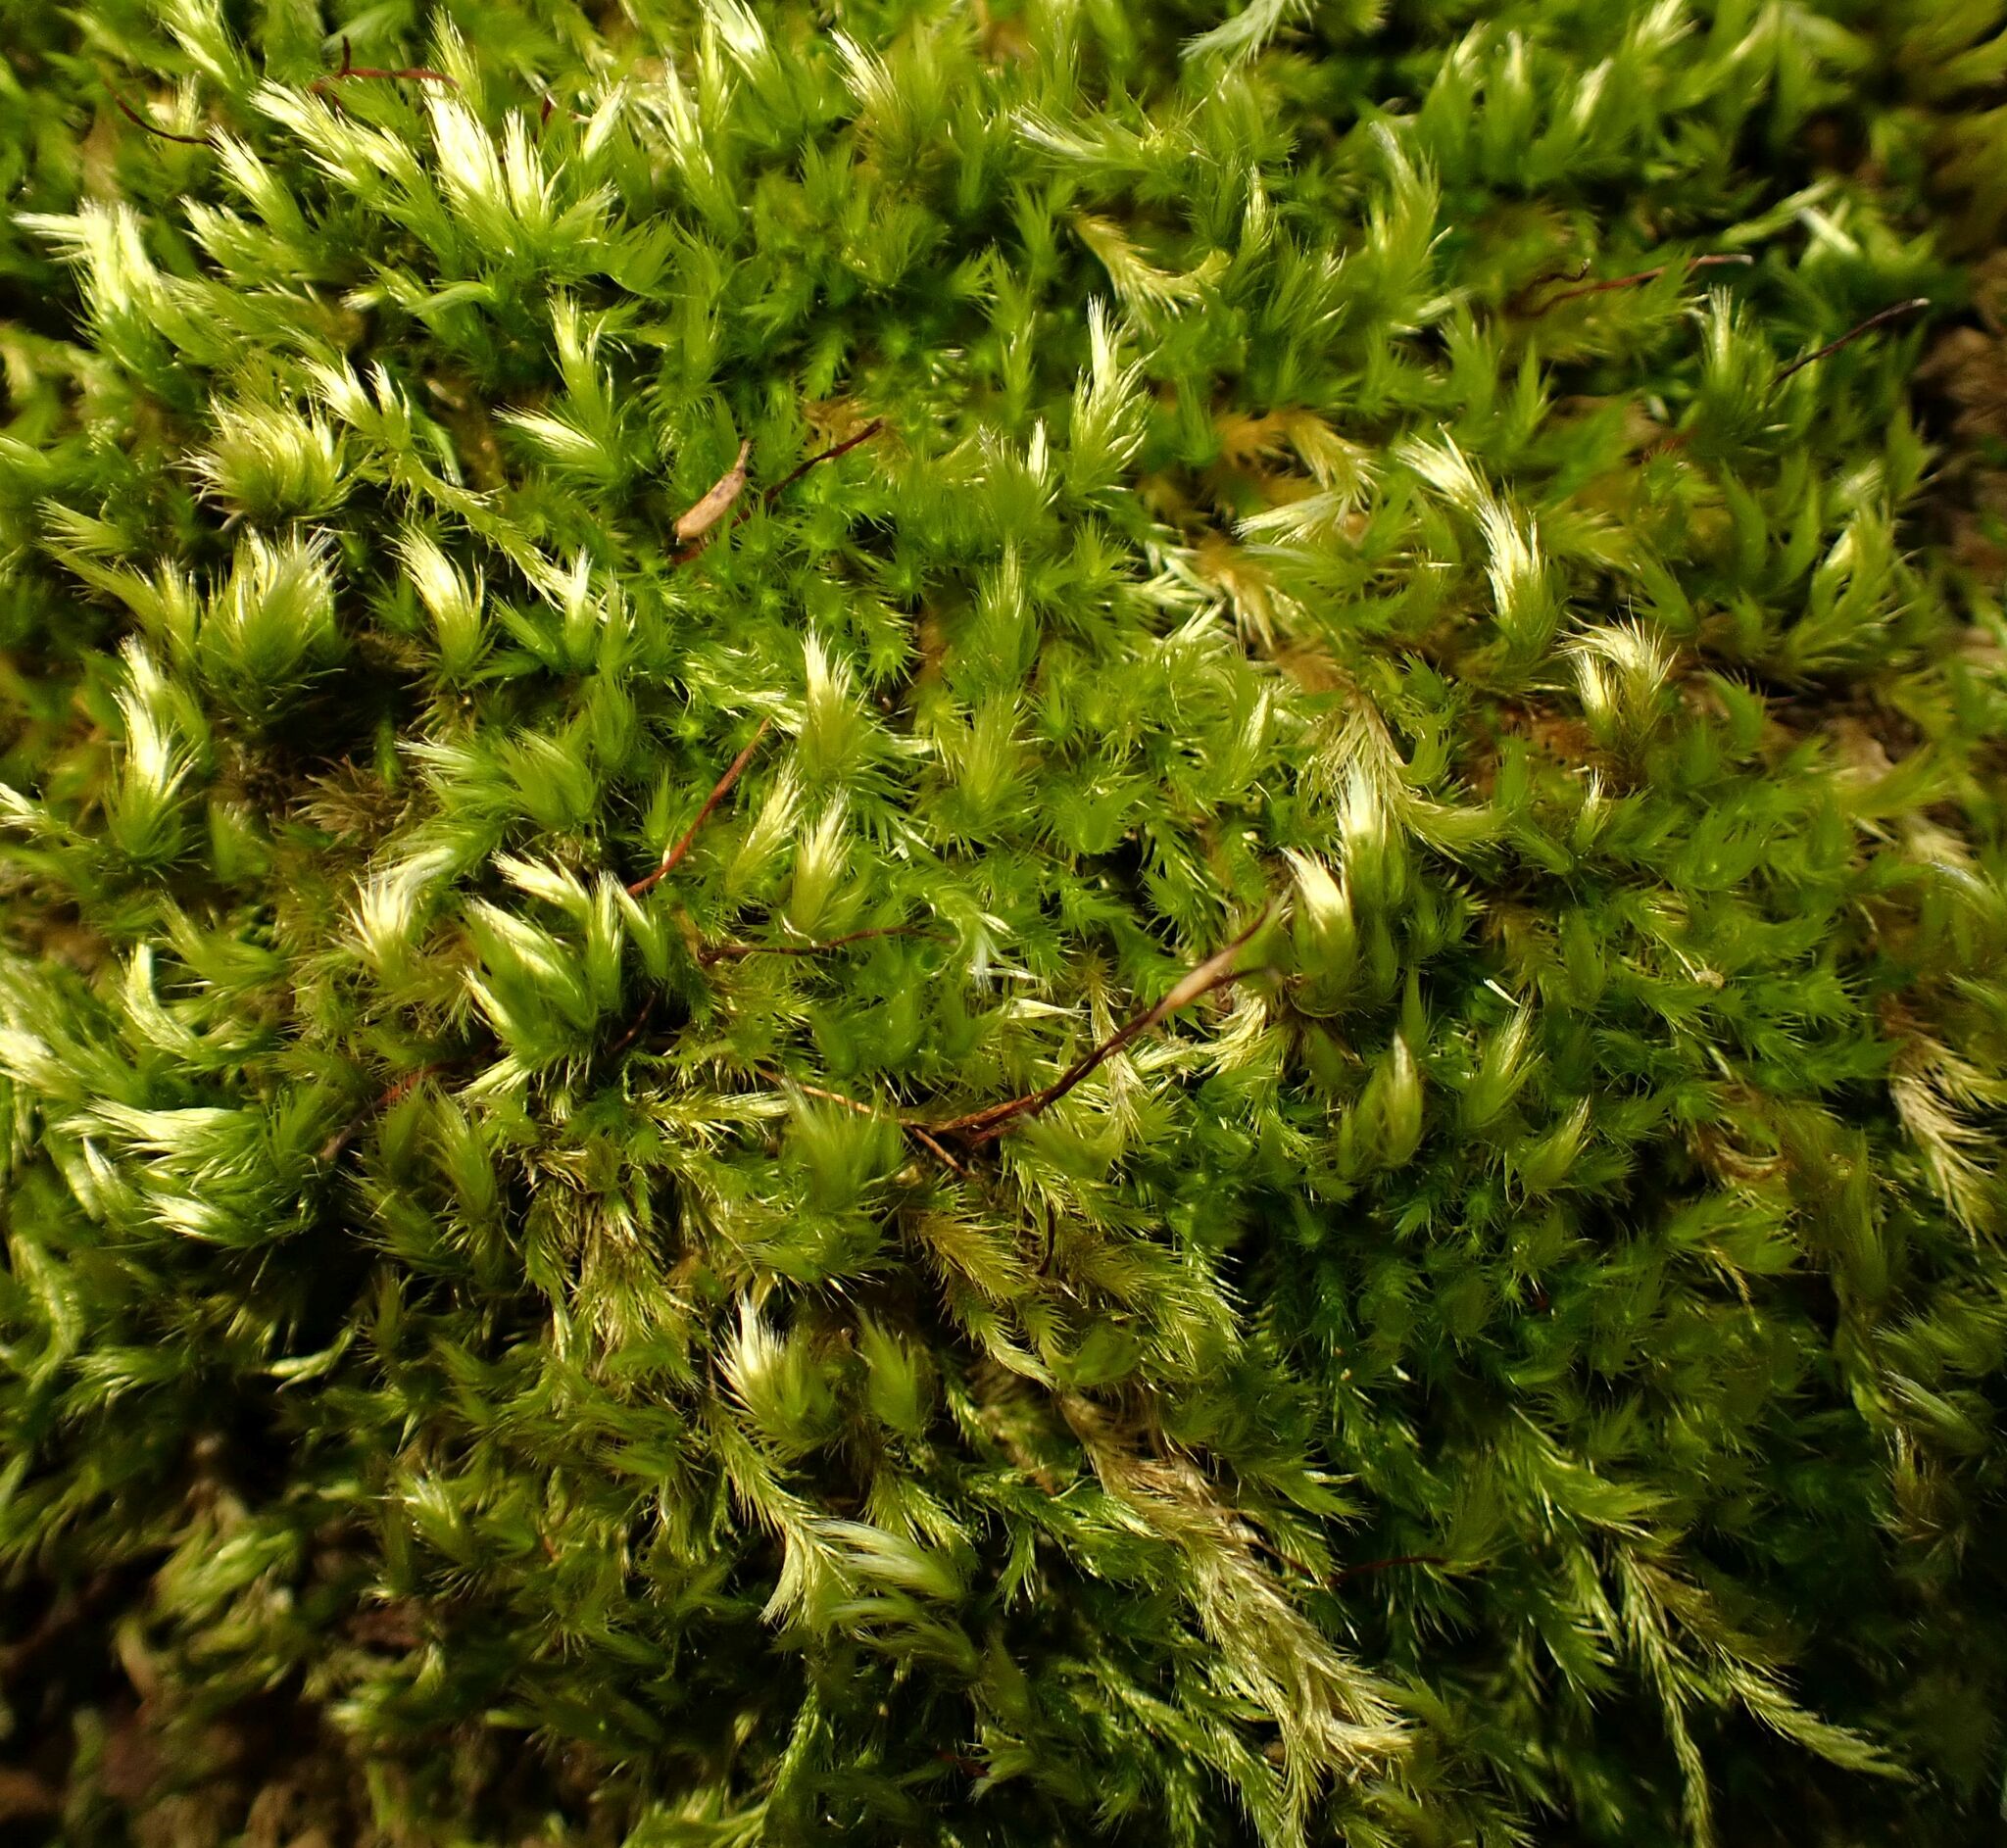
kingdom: Plantae
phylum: Bryophyta
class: Bryopsida
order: Hypnales
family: Brachytheciaceae
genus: Homalothecium
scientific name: Homalothecium sericeum
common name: Silky wall feather-moss
